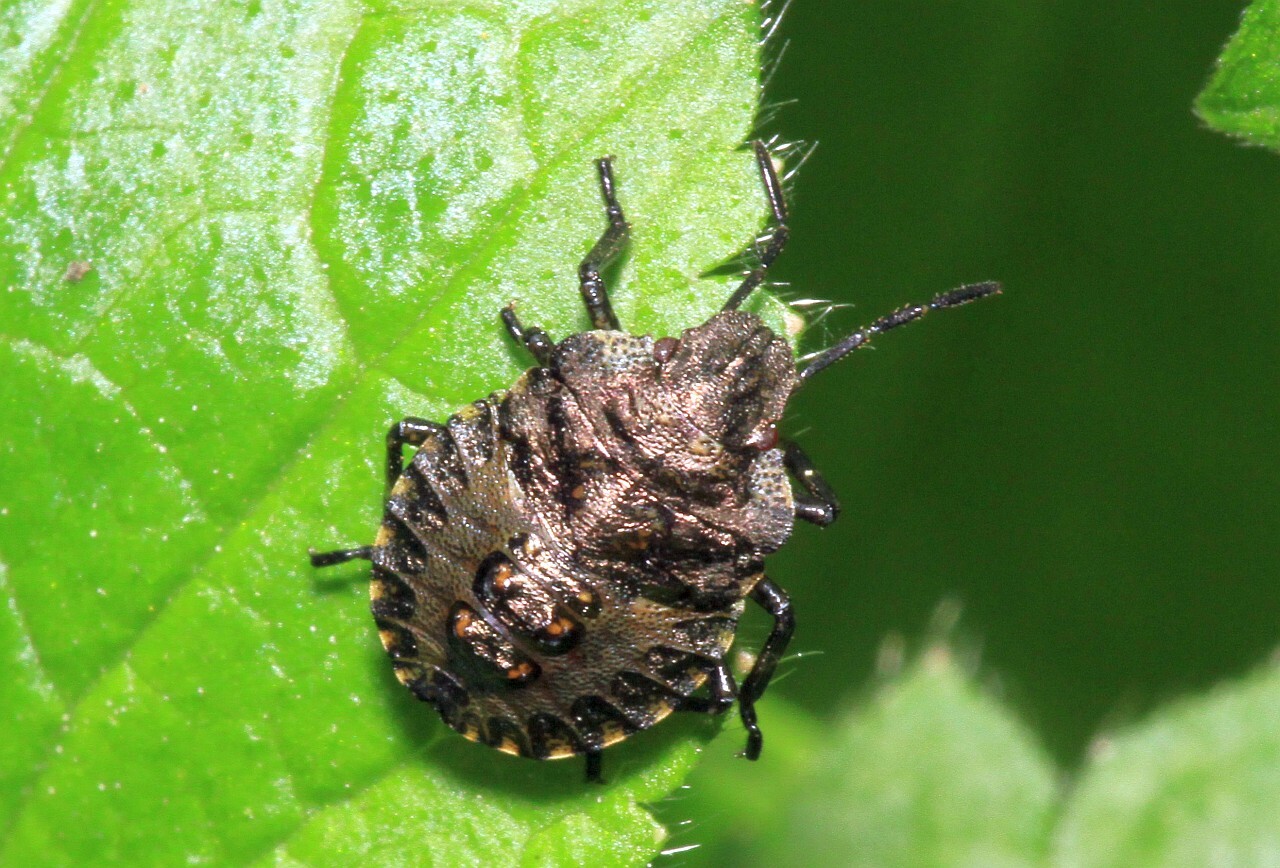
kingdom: Animalia
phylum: Arthropoda
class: Insecta
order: Hemiptera
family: Pentatomidae
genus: Pentatoma
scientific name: Pentatoma rufipes
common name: Forest bug
